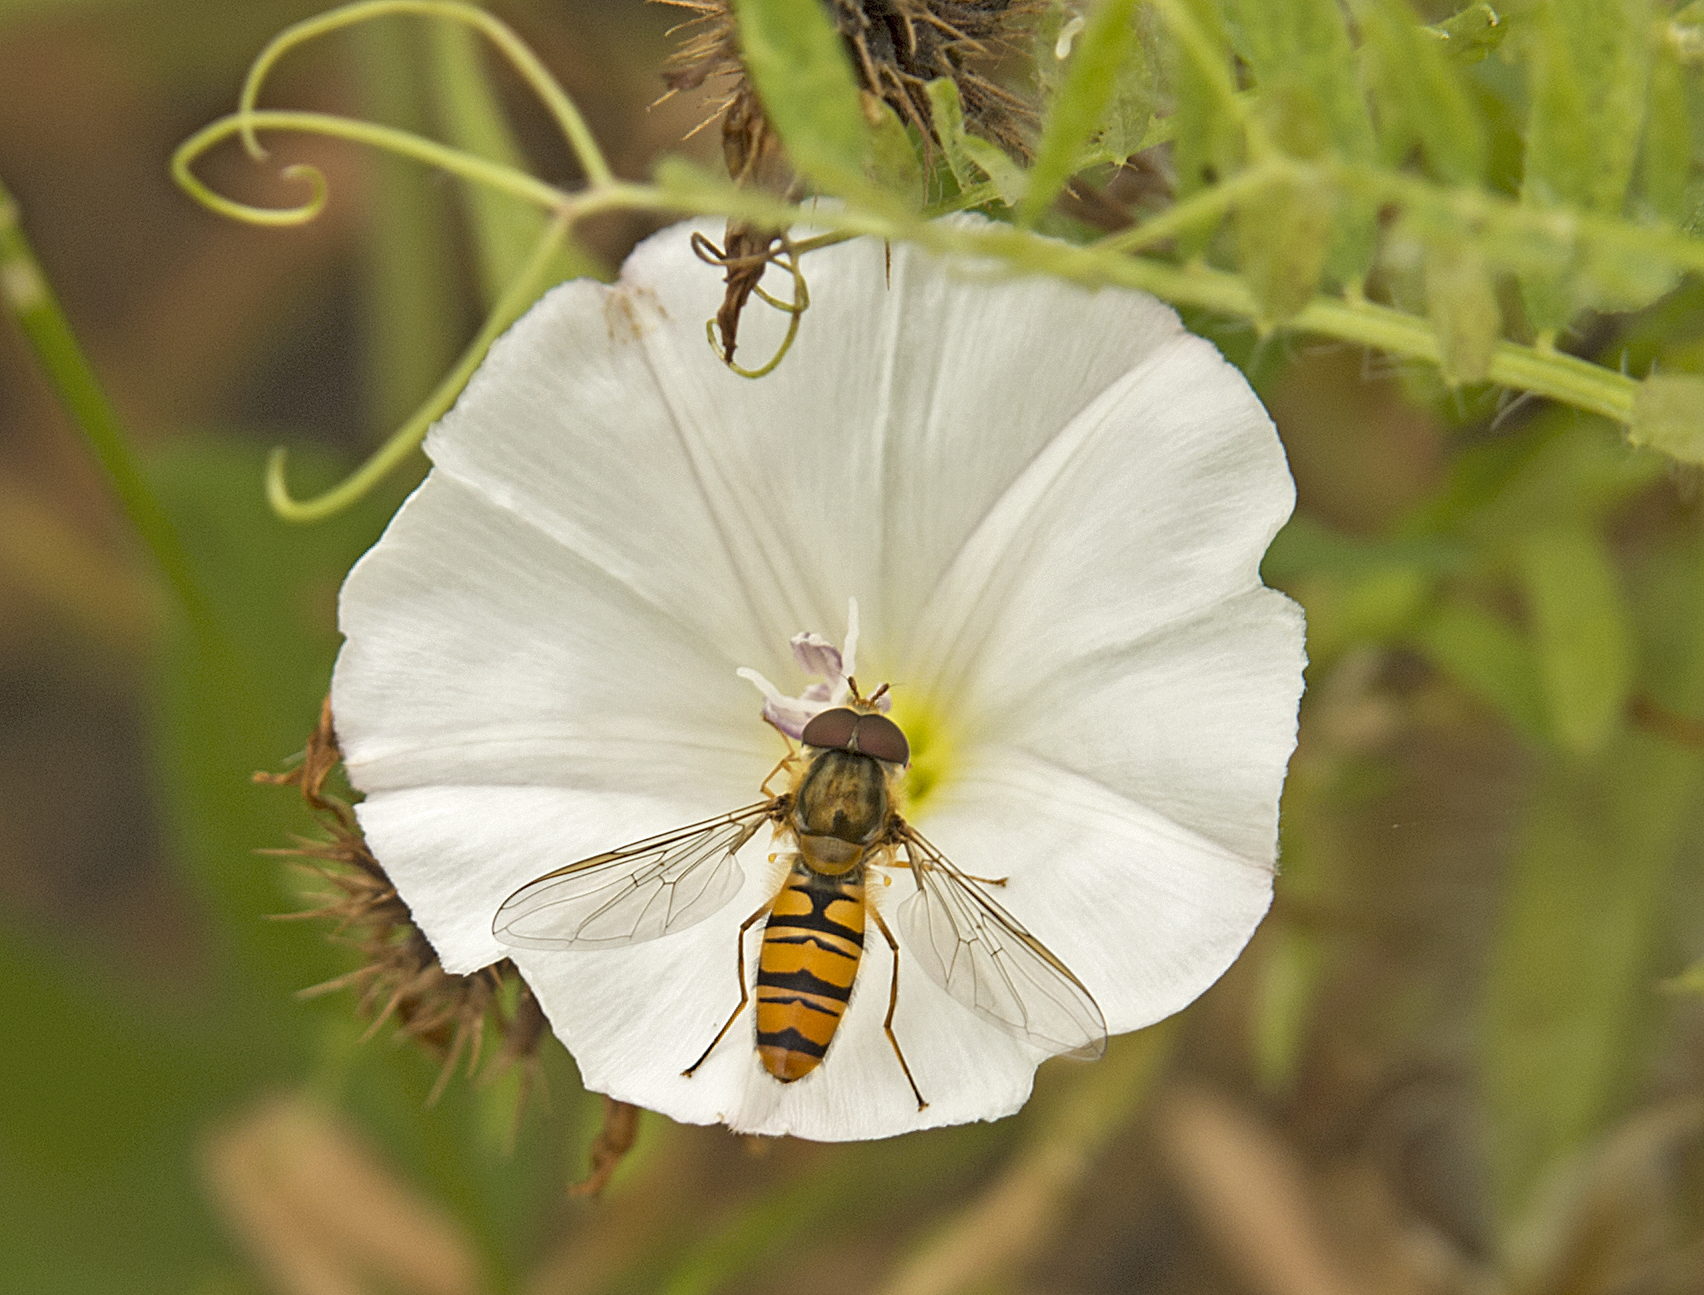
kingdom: Animalia
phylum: Arthropoda
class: Insecta
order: Diptera
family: Syrphidae
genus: Episyrphus
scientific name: Episyrphus balteatus
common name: Marmalade hoverfly
